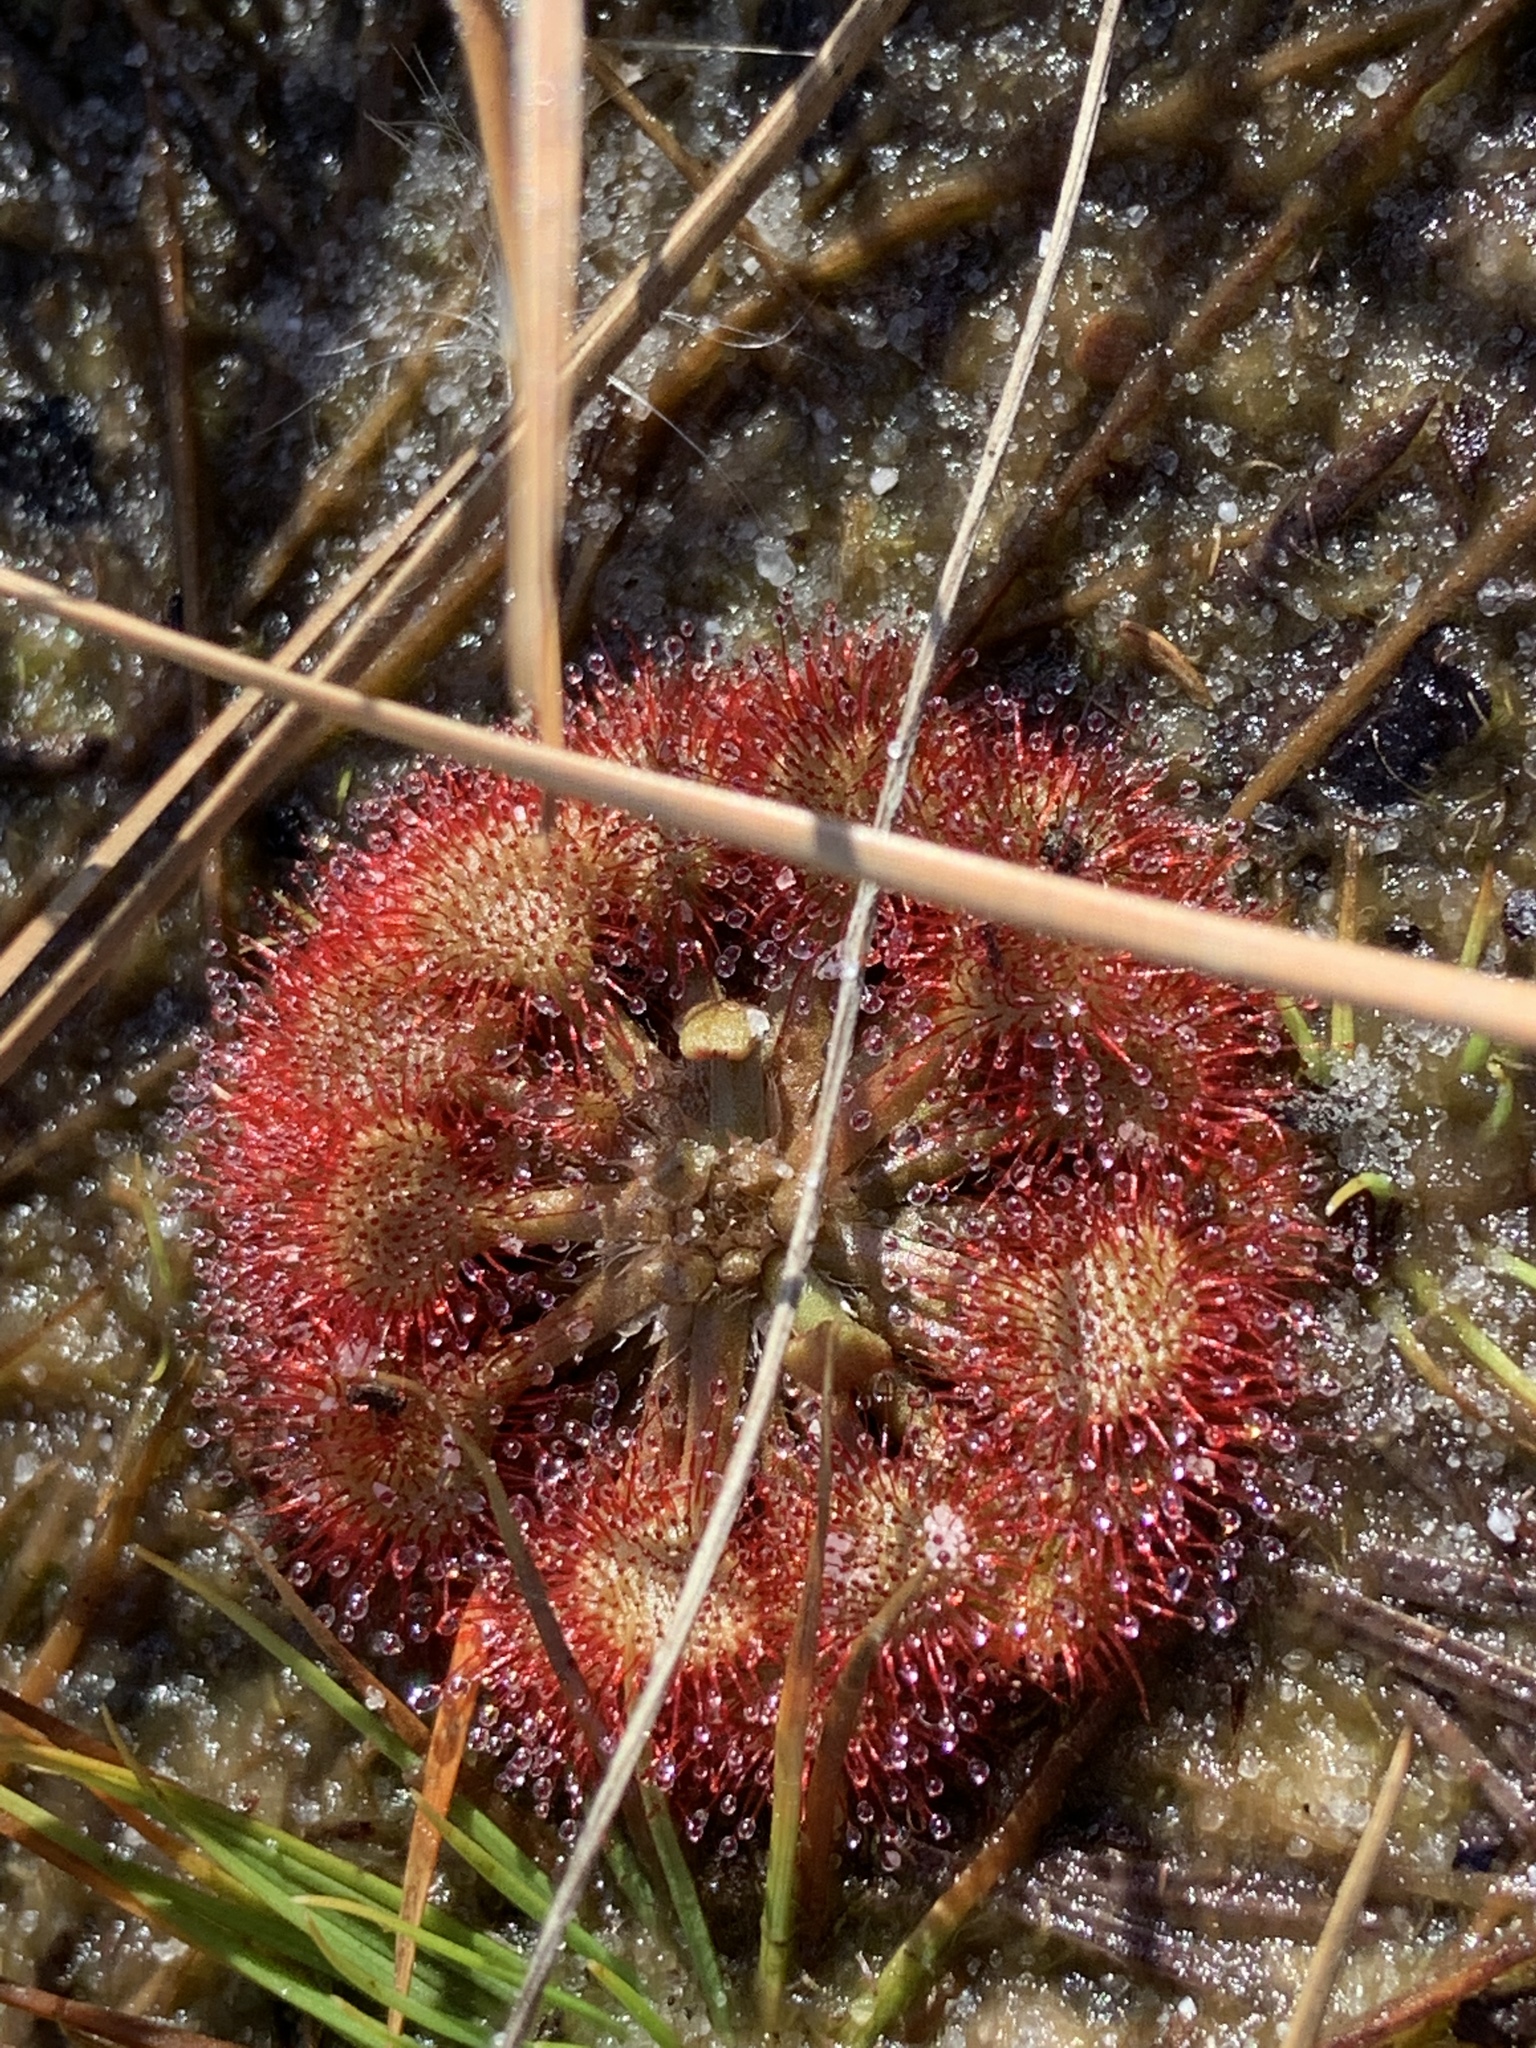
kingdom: Plantae
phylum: Tracheophyta
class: Magnoliopsida
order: Caryophyllales
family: Droseraceae
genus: Drosera
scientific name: Drosera capillaris
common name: Pink sundew
